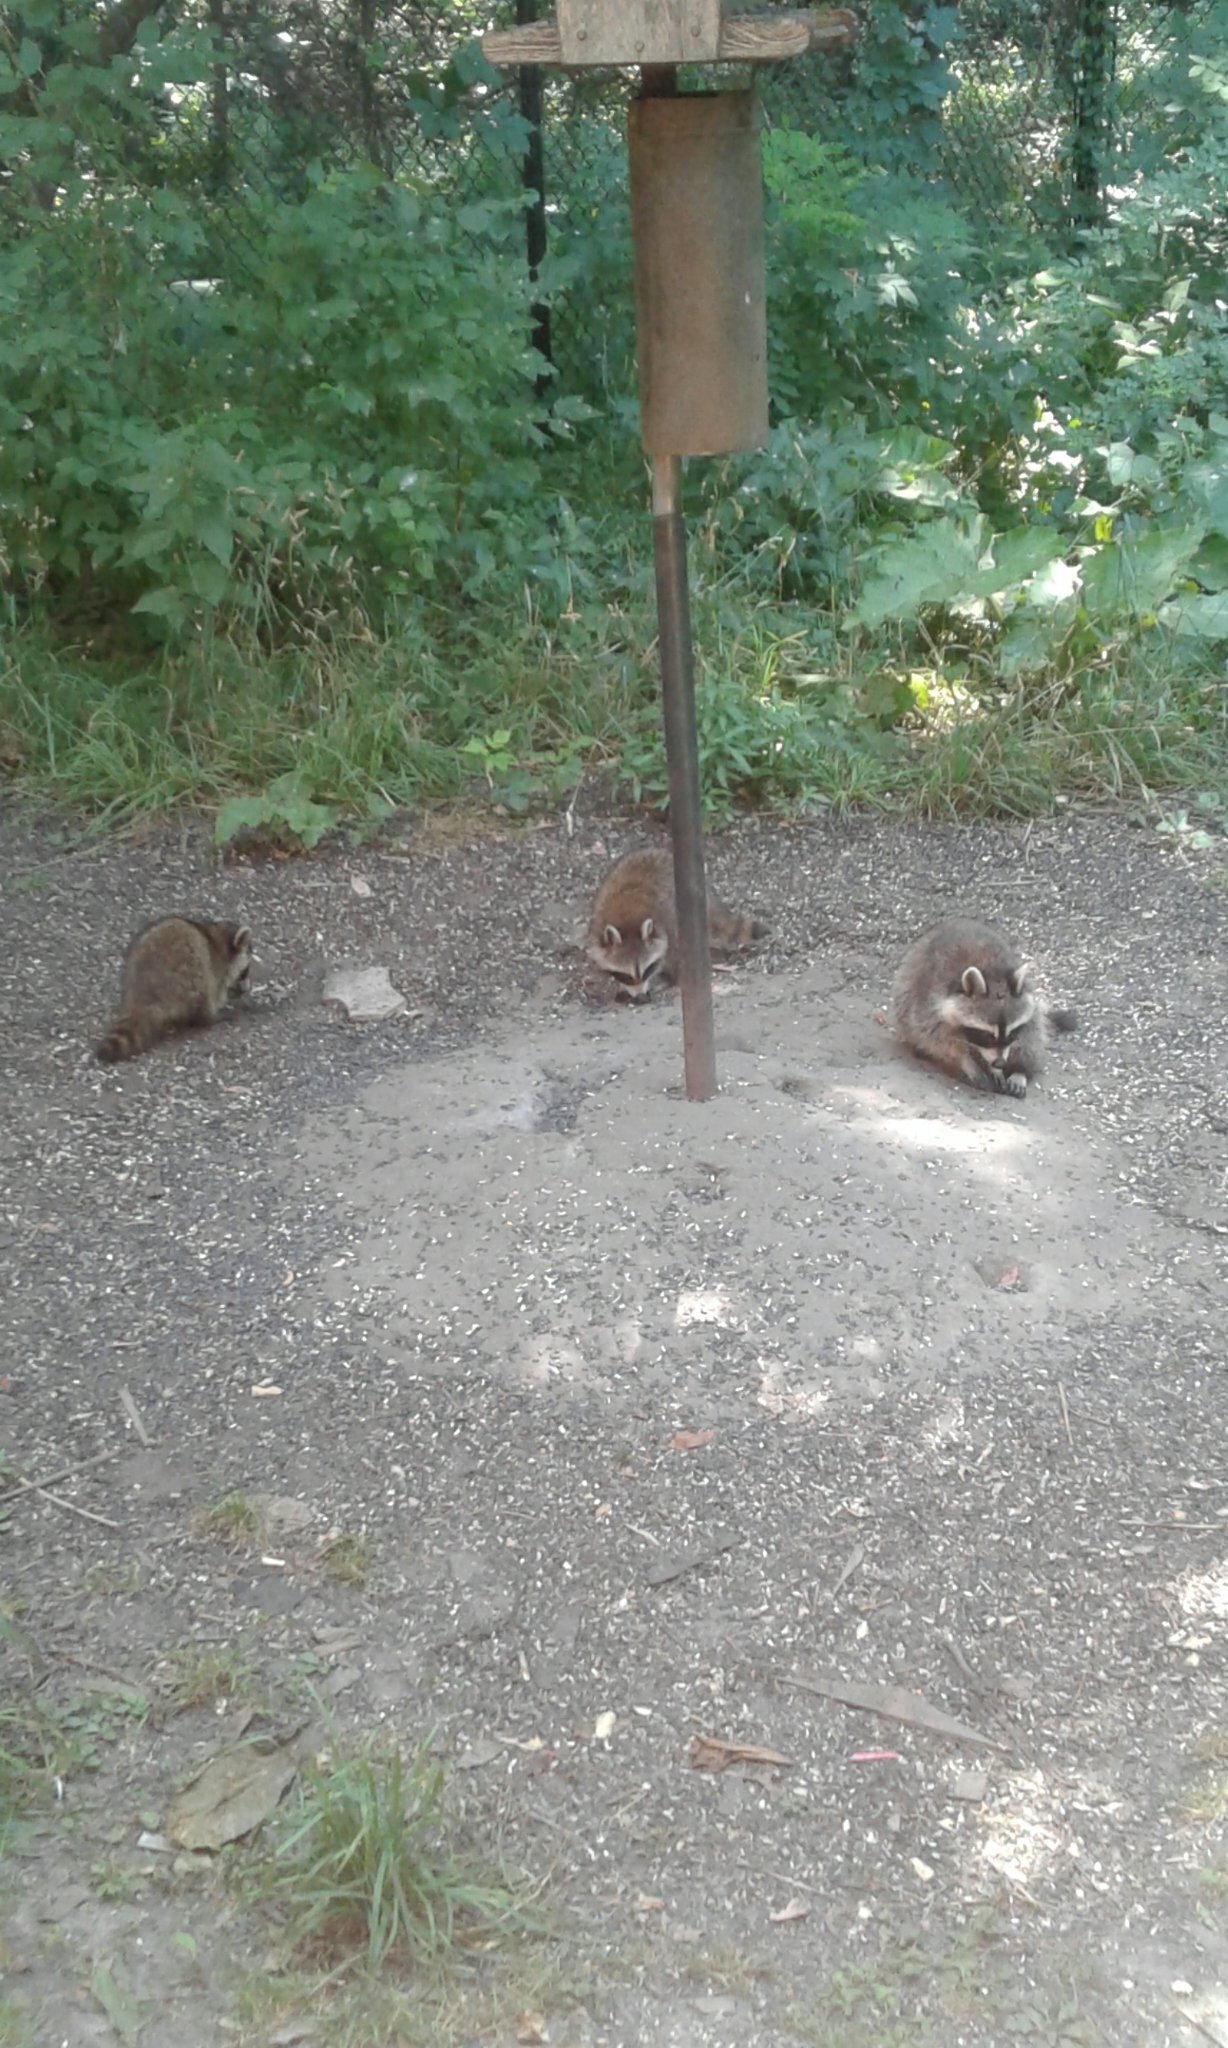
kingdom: Animalia
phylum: Chordata
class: Mammalia
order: Carnivora
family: Procyonidae
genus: Procyon
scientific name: Procyon lotor
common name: Raccoon
